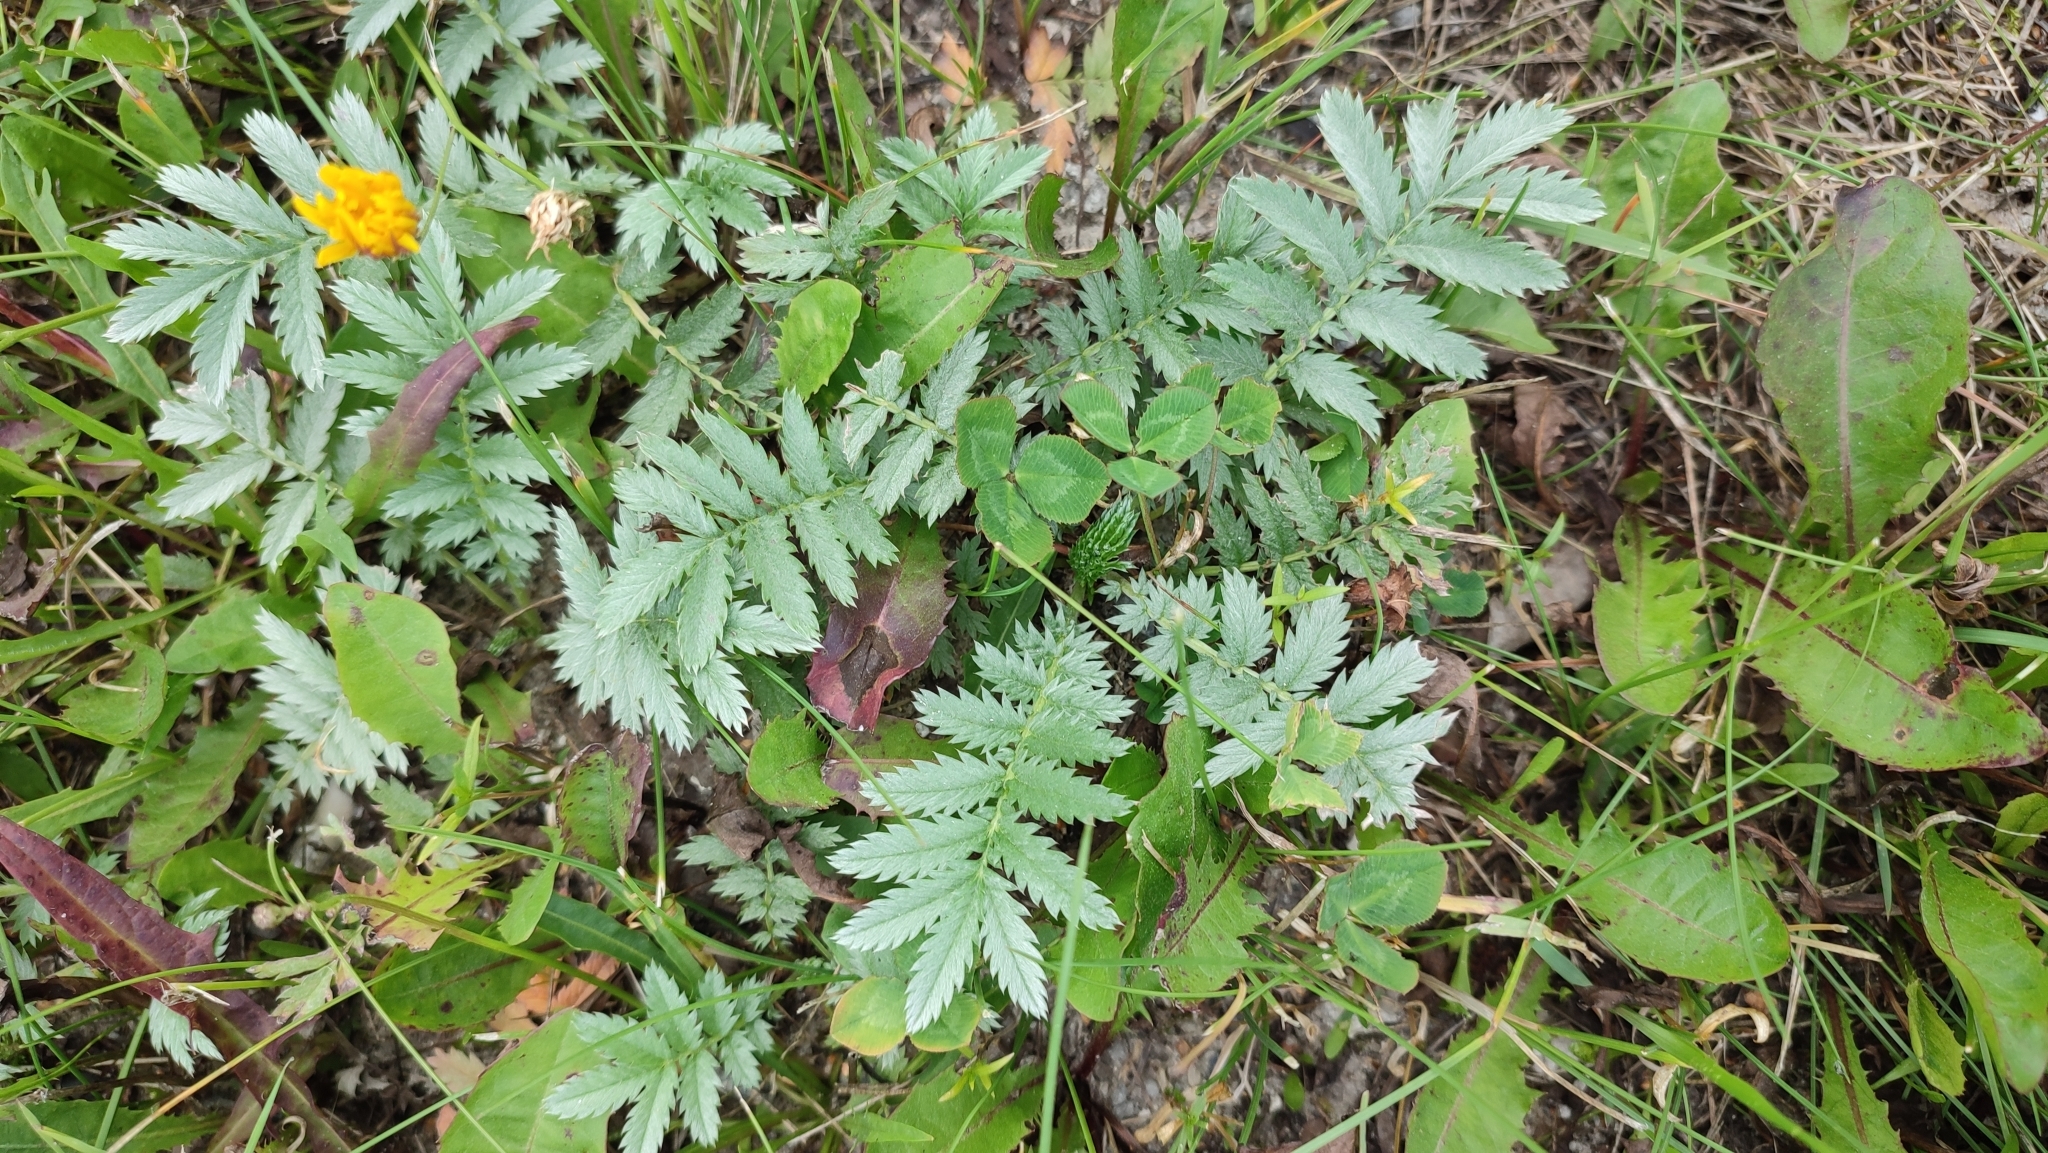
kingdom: Plantae
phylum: Tracheophyta
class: Magnoliopsida
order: Rosales
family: Rosaceae
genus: Argentina
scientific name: Argentina anserina
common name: Common silverweed
